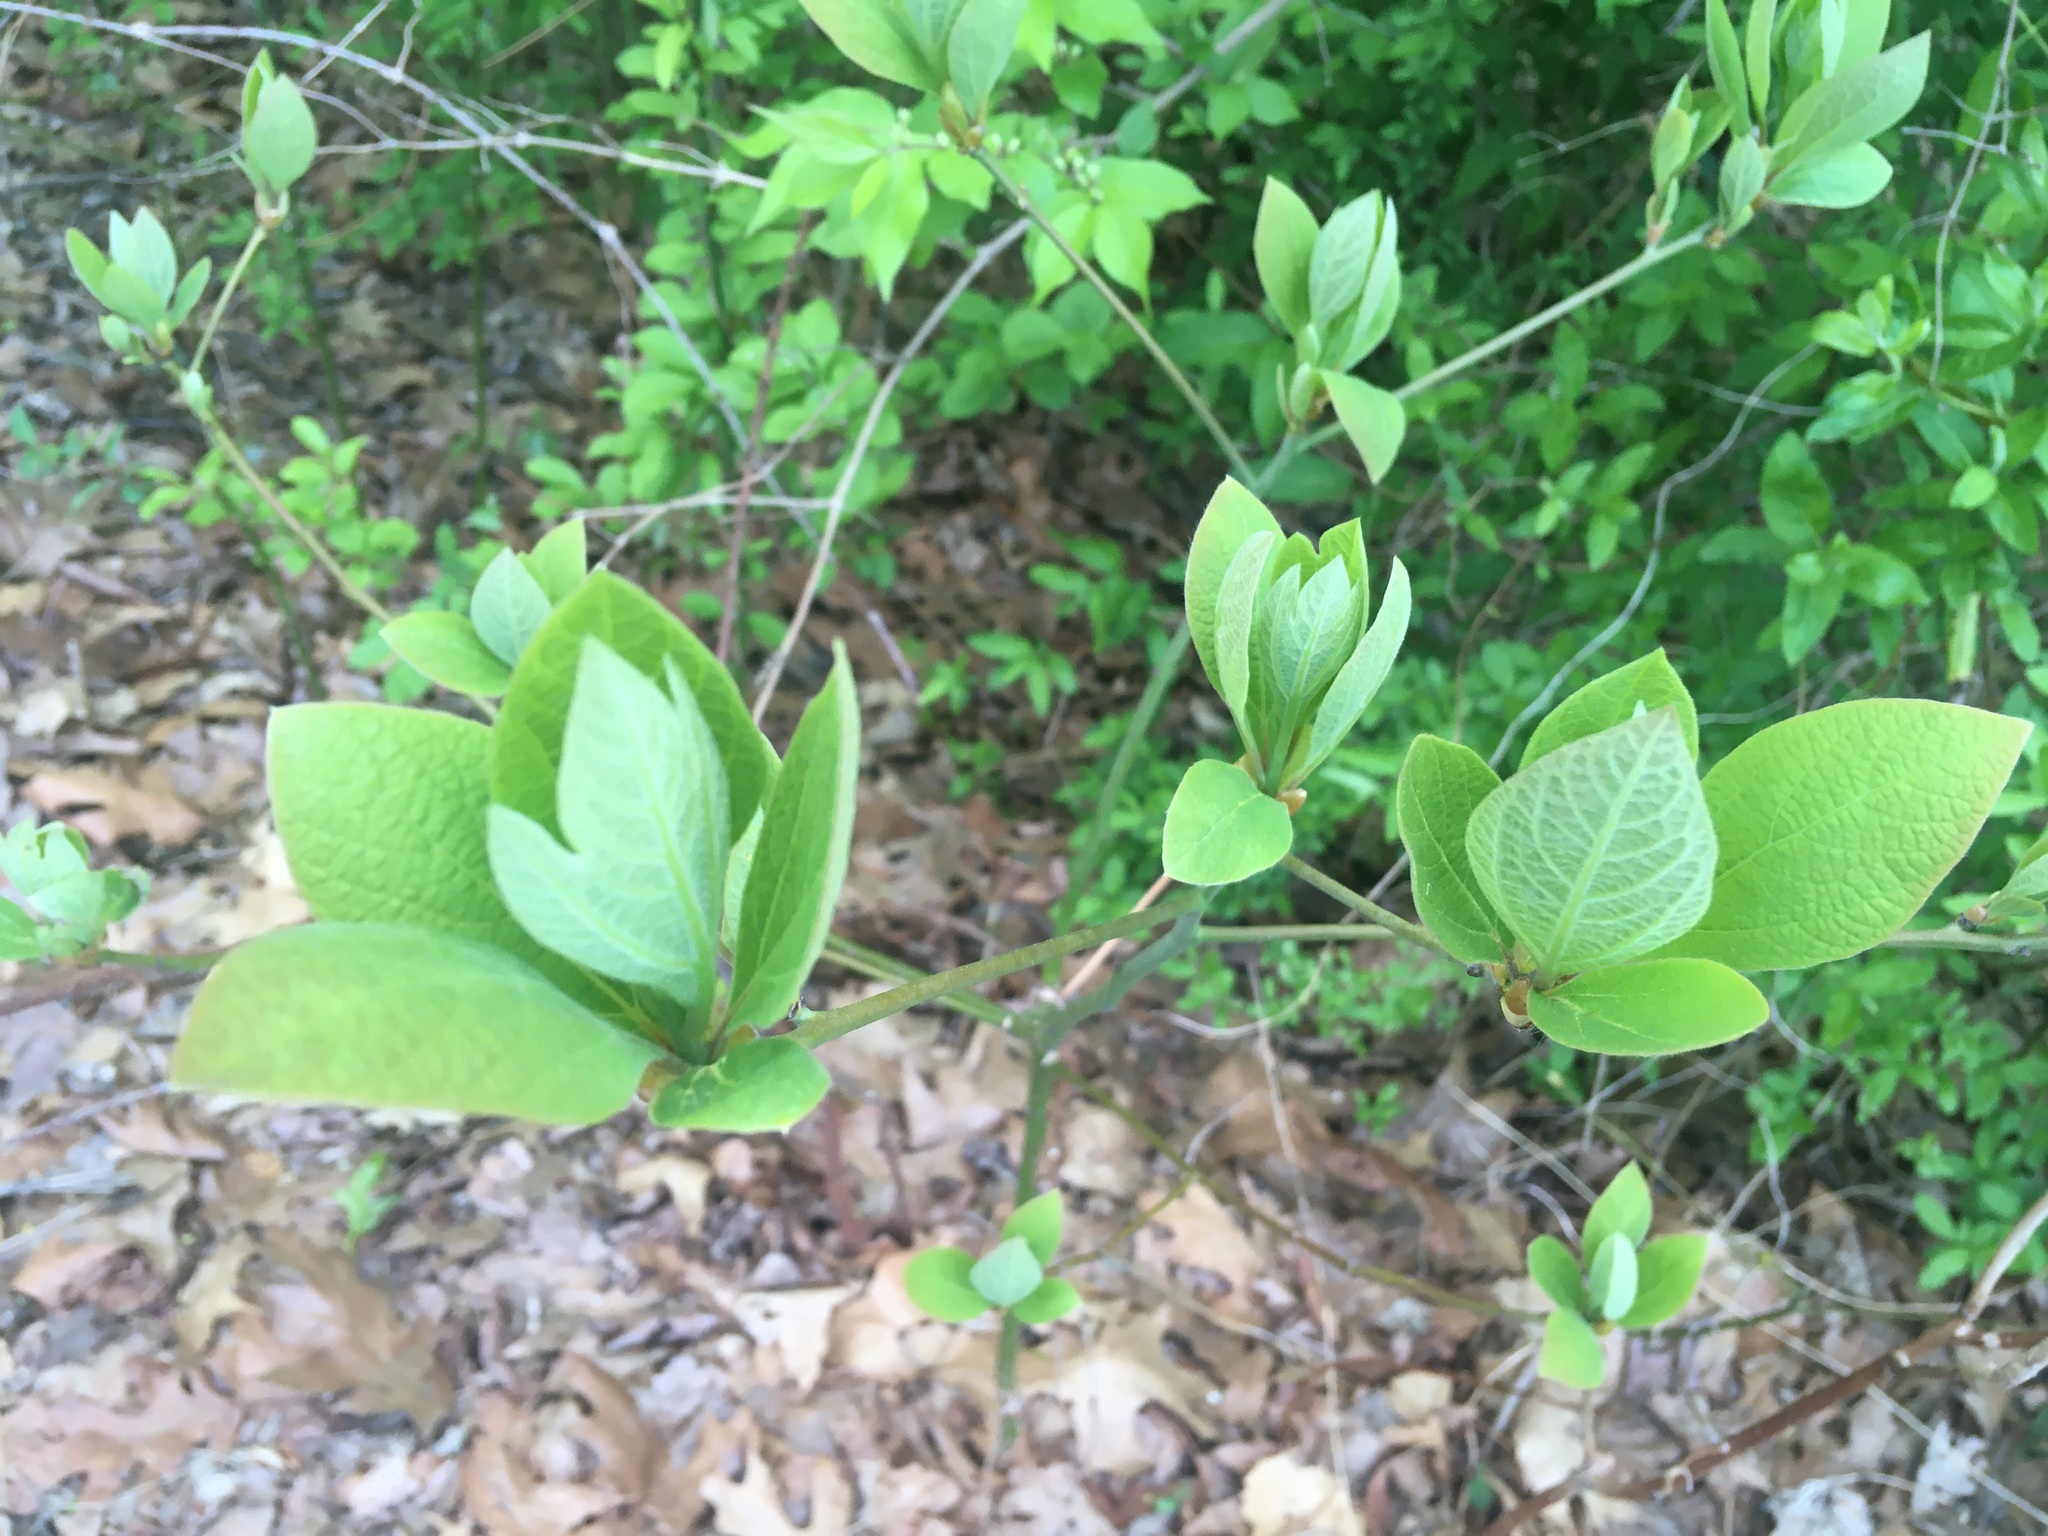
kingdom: Plantae
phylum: Tracheophyta
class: Magnoliopsida
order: Laurales
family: Lauraceae
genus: Sassafras
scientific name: Sassafras albidum
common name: Sassafras
